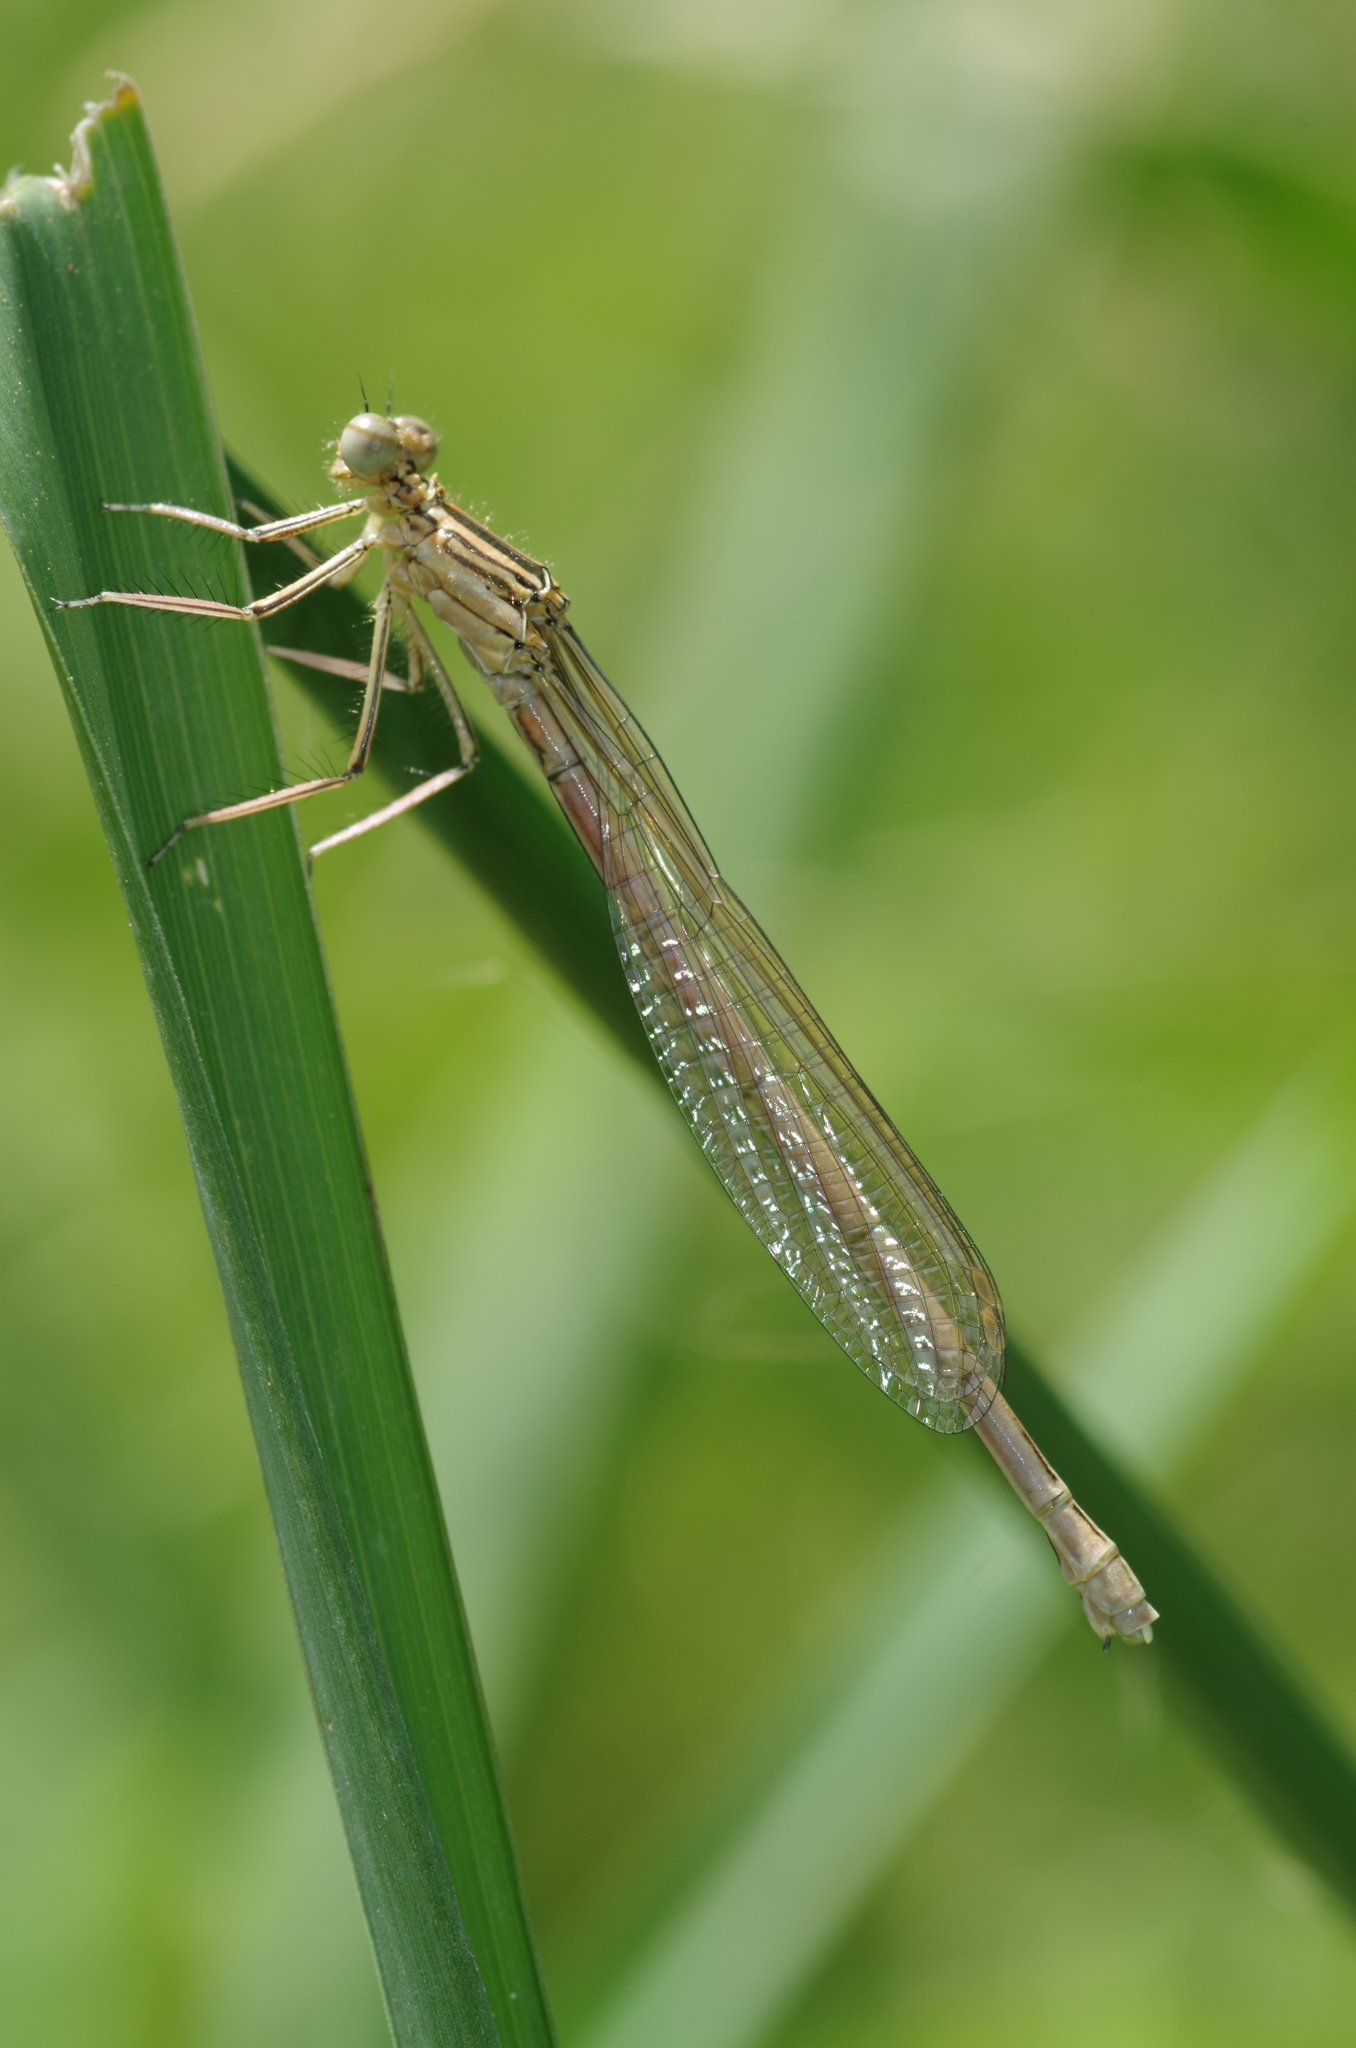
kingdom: Animalia
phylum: Arthropoda
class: Insecta
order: Odonata
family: Platycnemididae
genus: Platycnemis
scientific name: Platycnemis pennipes
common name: White-legged damselfly
